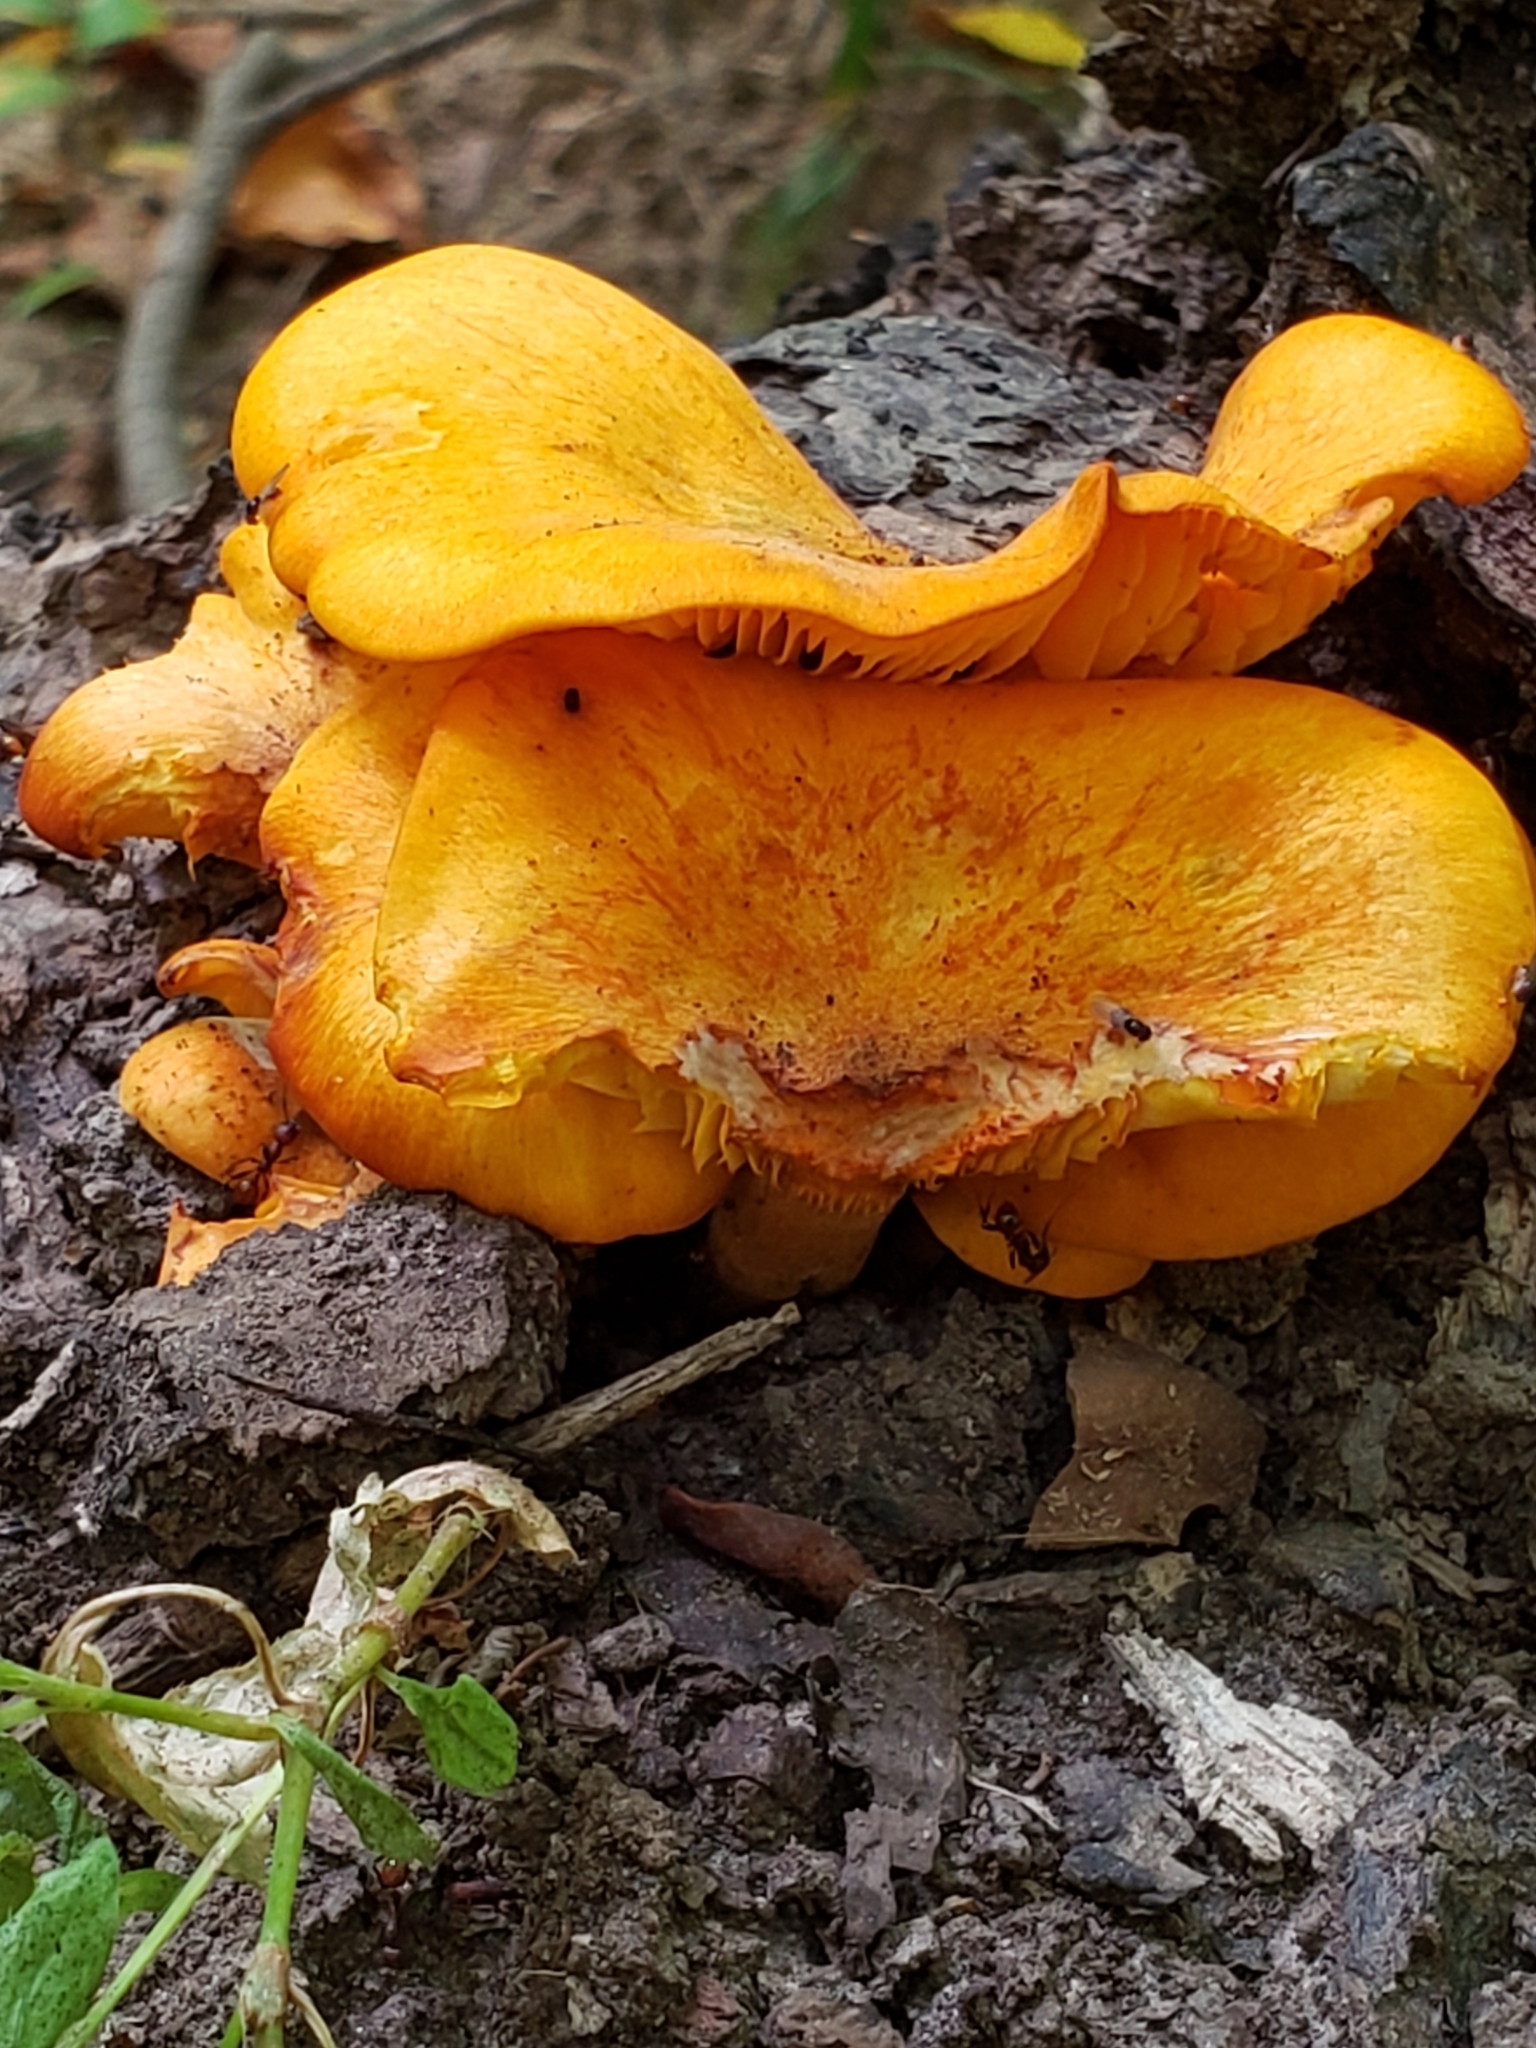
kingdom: Fungi
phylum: Basidiomycota
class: Agaricomycetes
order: Agaricales
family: Omphalotaceae
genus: Omphalotus
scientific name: Omphalotus illudens
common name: Jack o lantern
